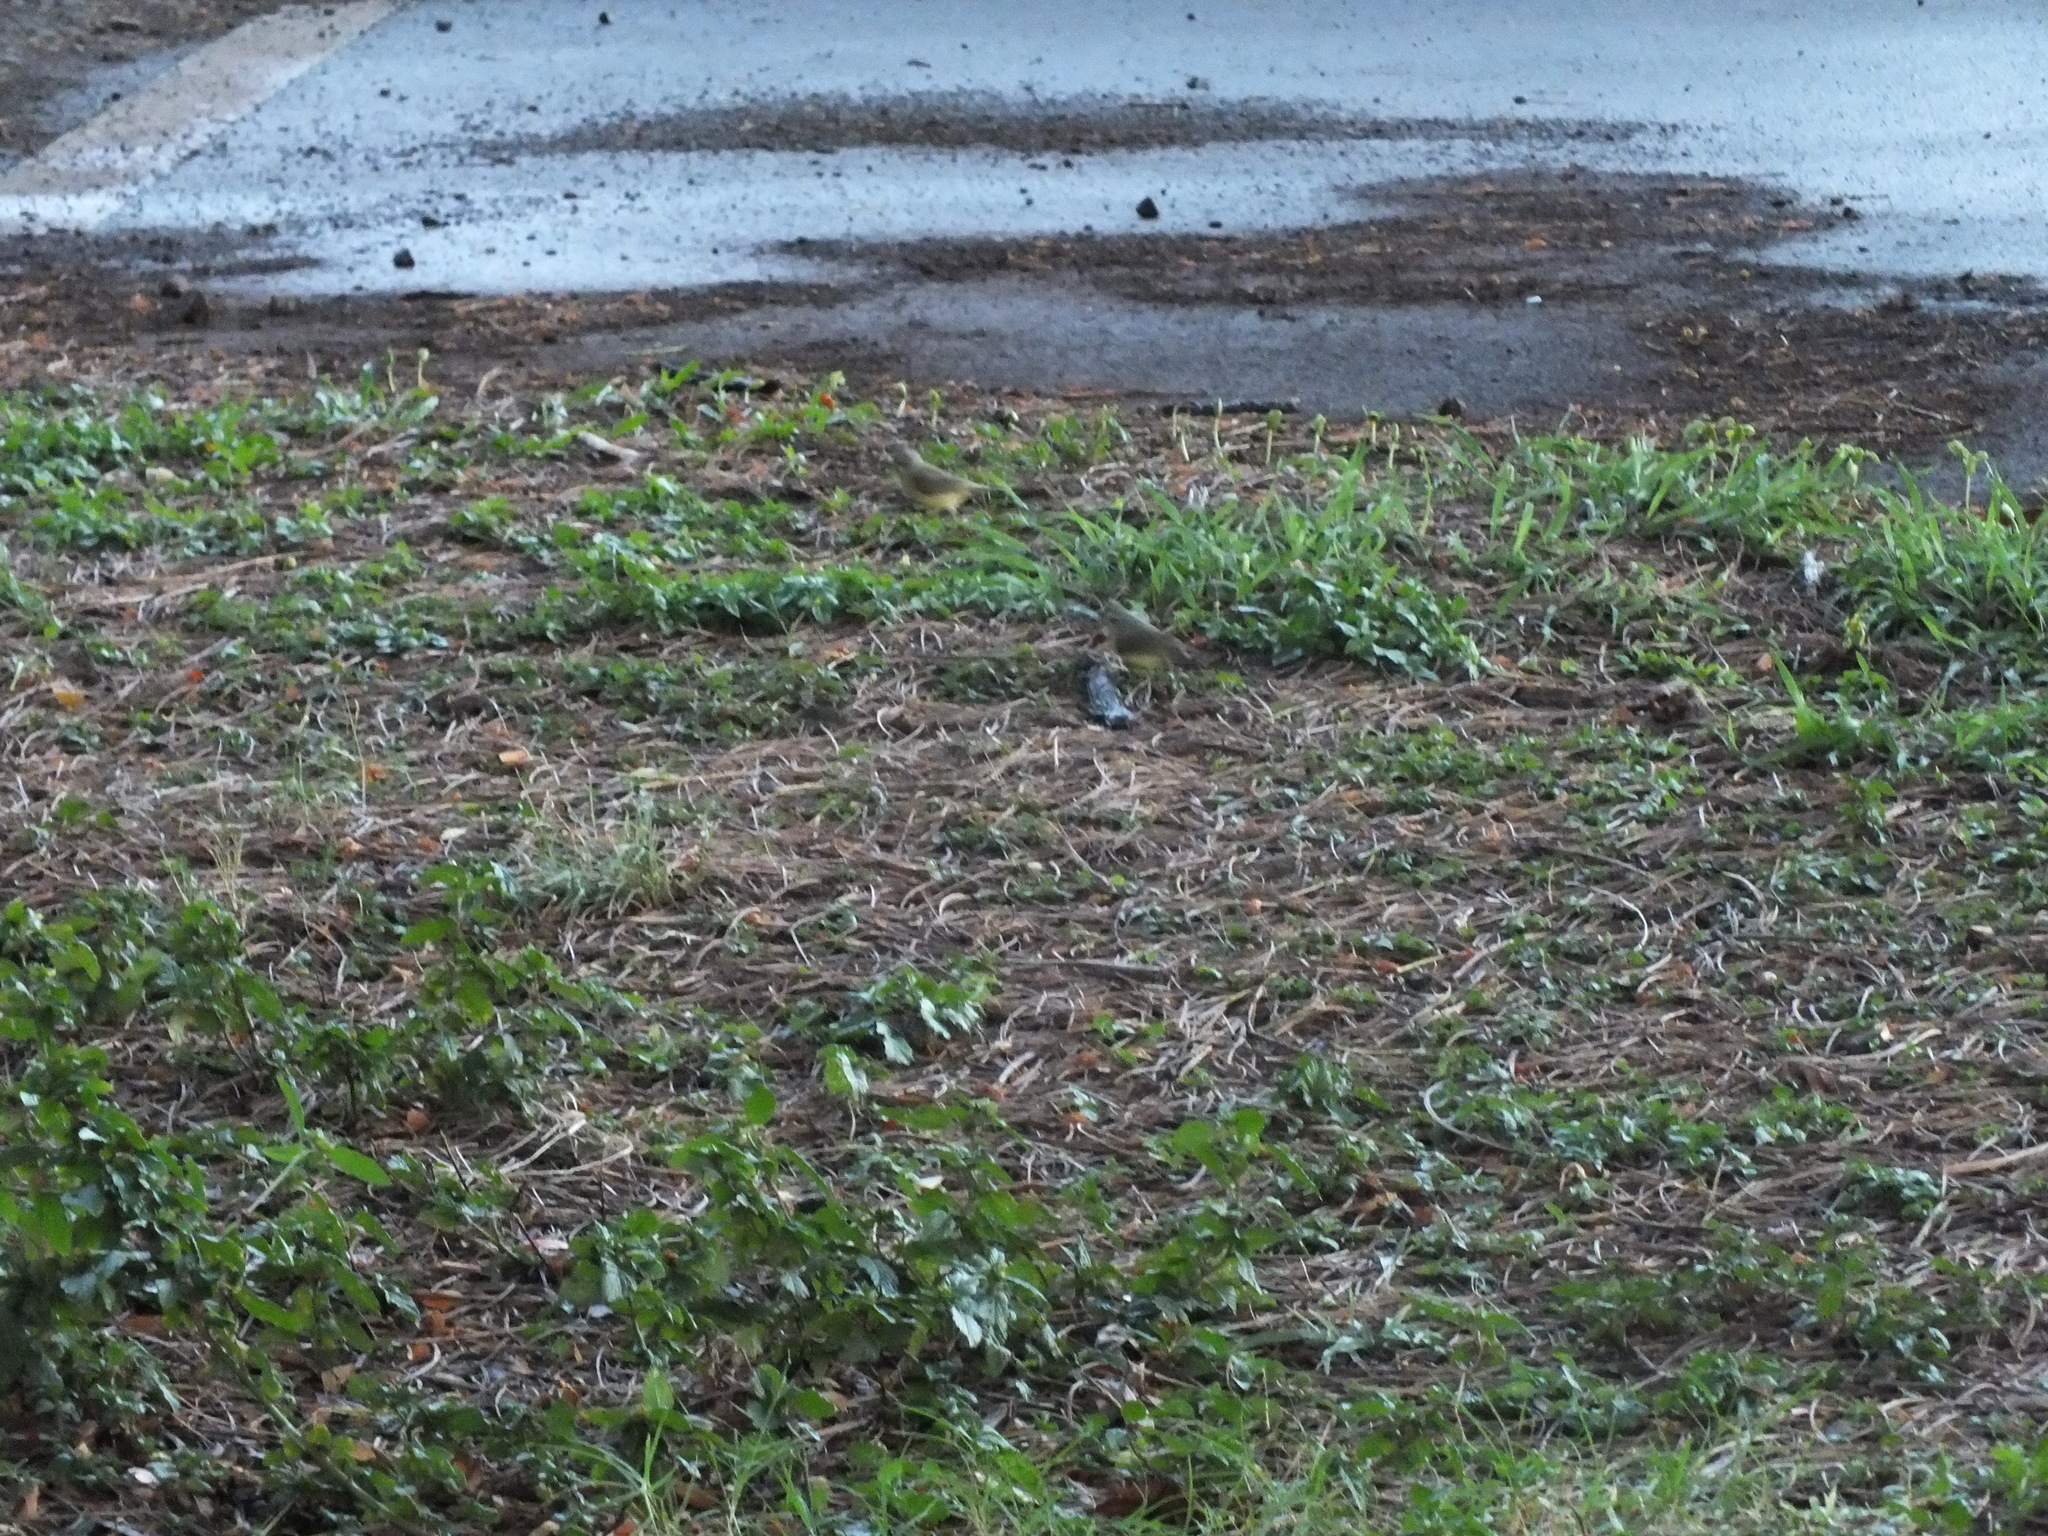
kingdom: Animalia
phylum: Chordata
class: Aves
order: Passeriformes
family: Fringillidae
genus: Crithagra
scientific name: Crithagra mozambica
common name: Yellow-fronted canary
